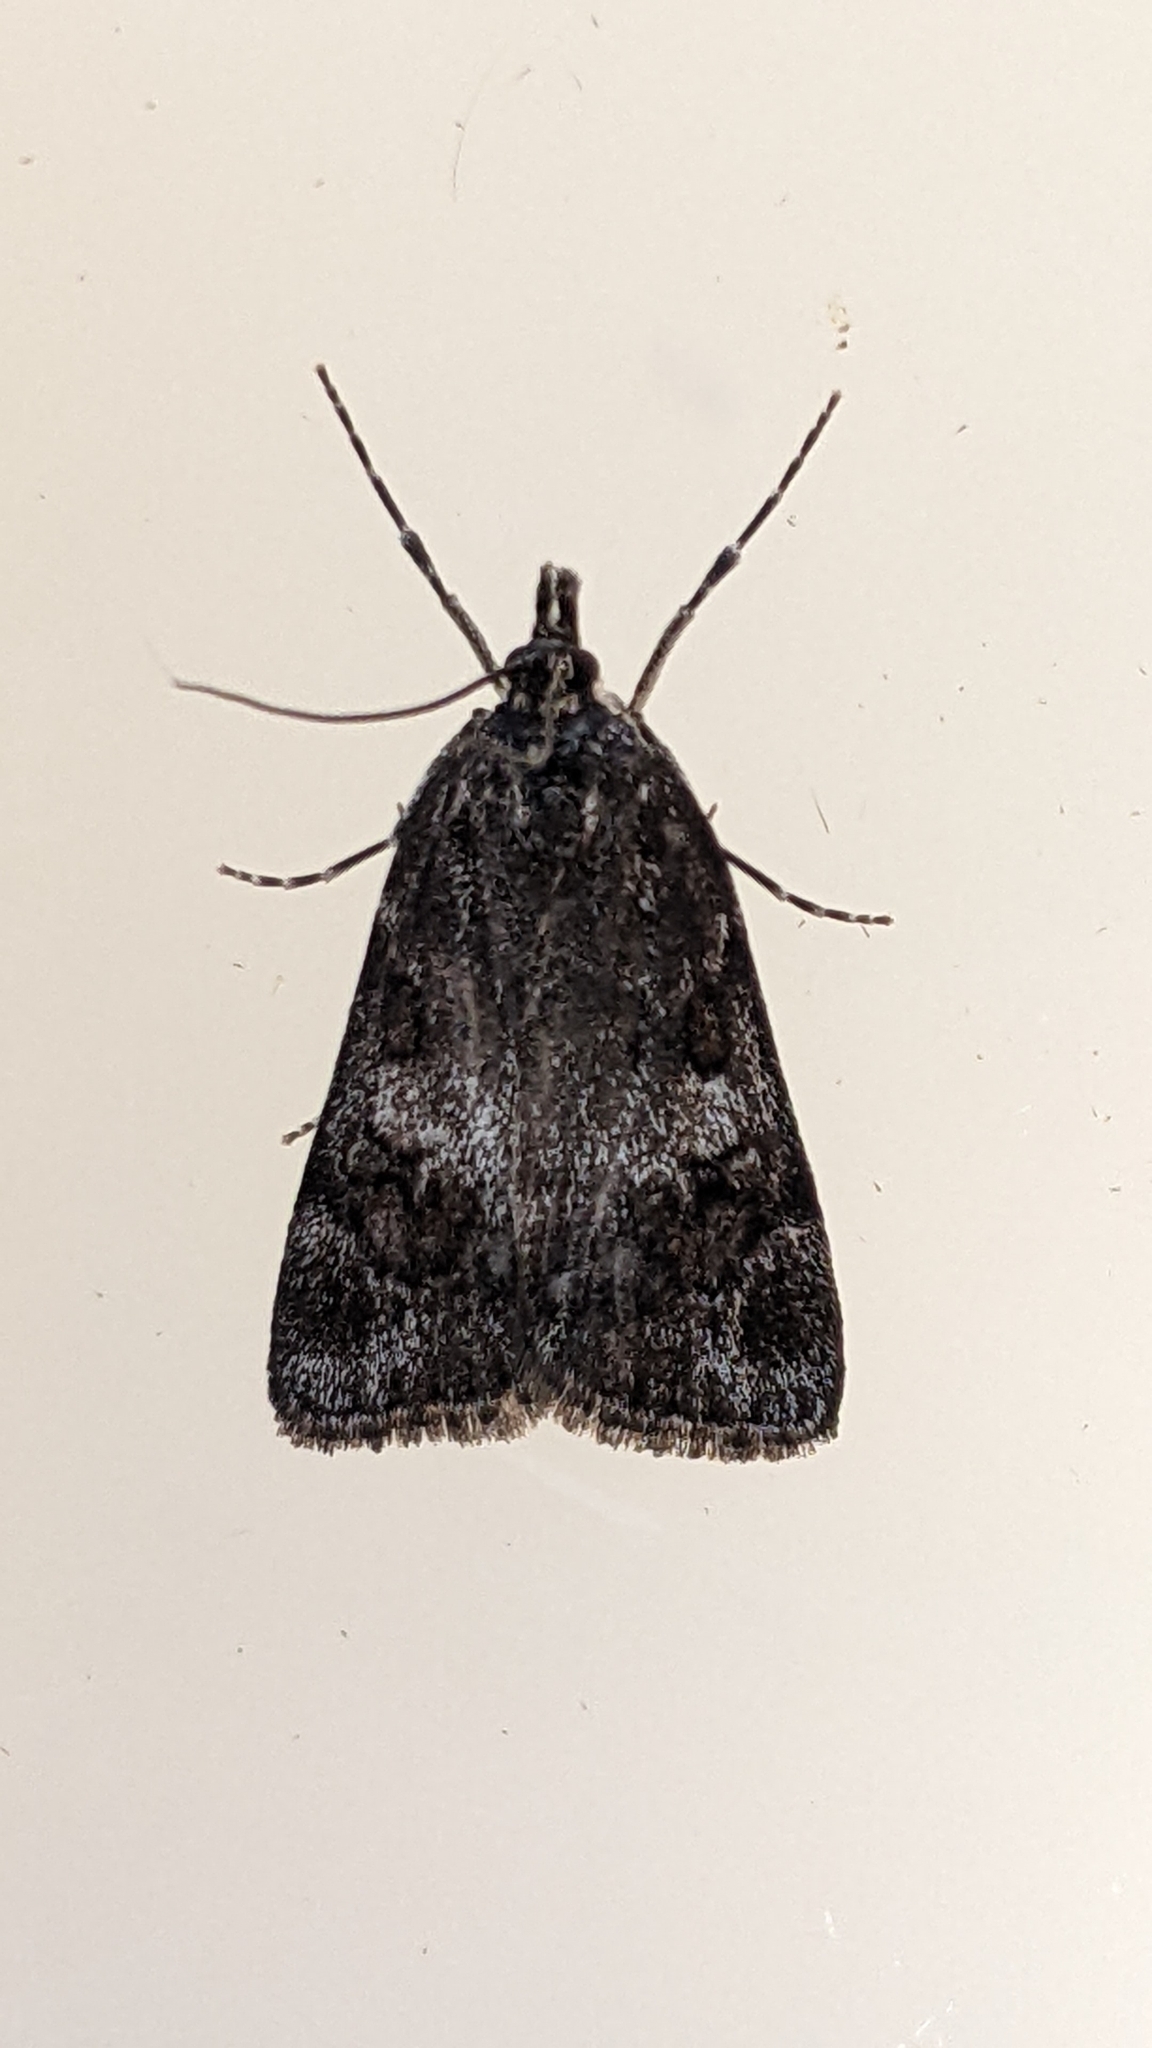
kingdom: Animalia
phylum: Arthropoda
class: Insecta
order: Lepidoptera
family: Crambidae
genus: Gesneria
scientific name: Gesneria centuriella
